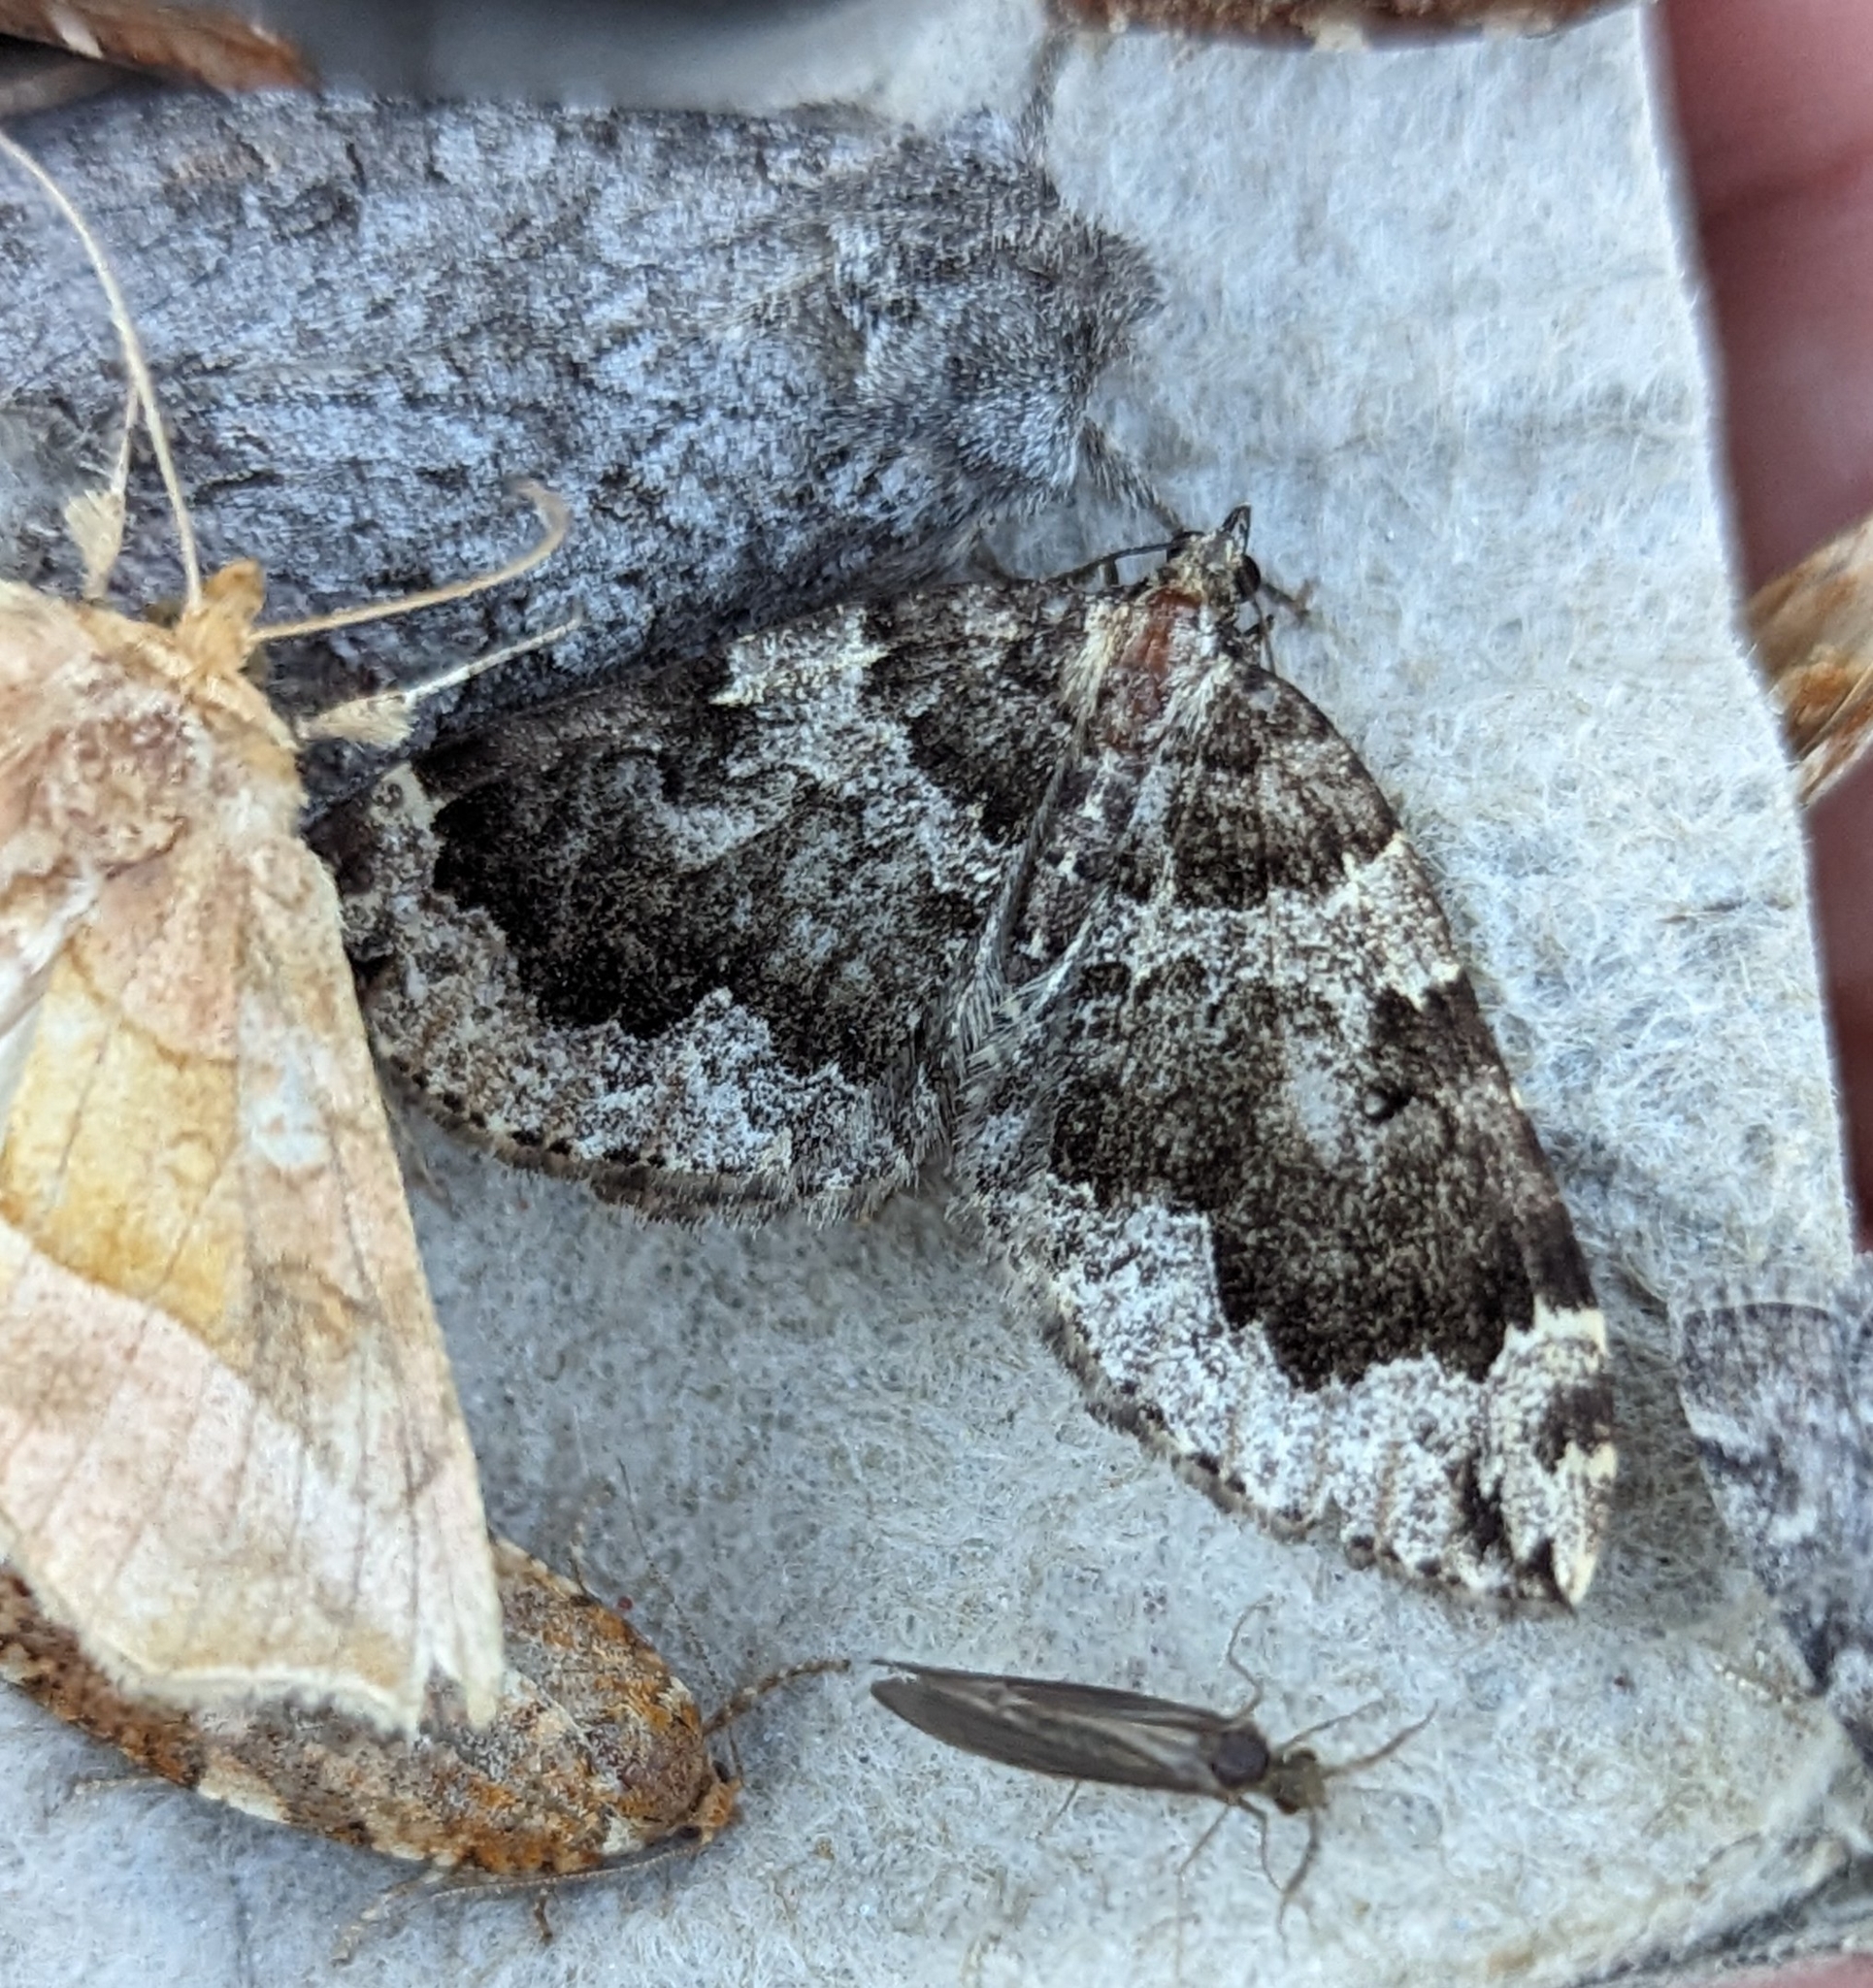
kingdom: Animalia
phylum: Arthropoda
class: Insecta
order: Lepidoptera
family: Geometridae
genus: Eustroma
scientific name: Eustroma semiatrata
